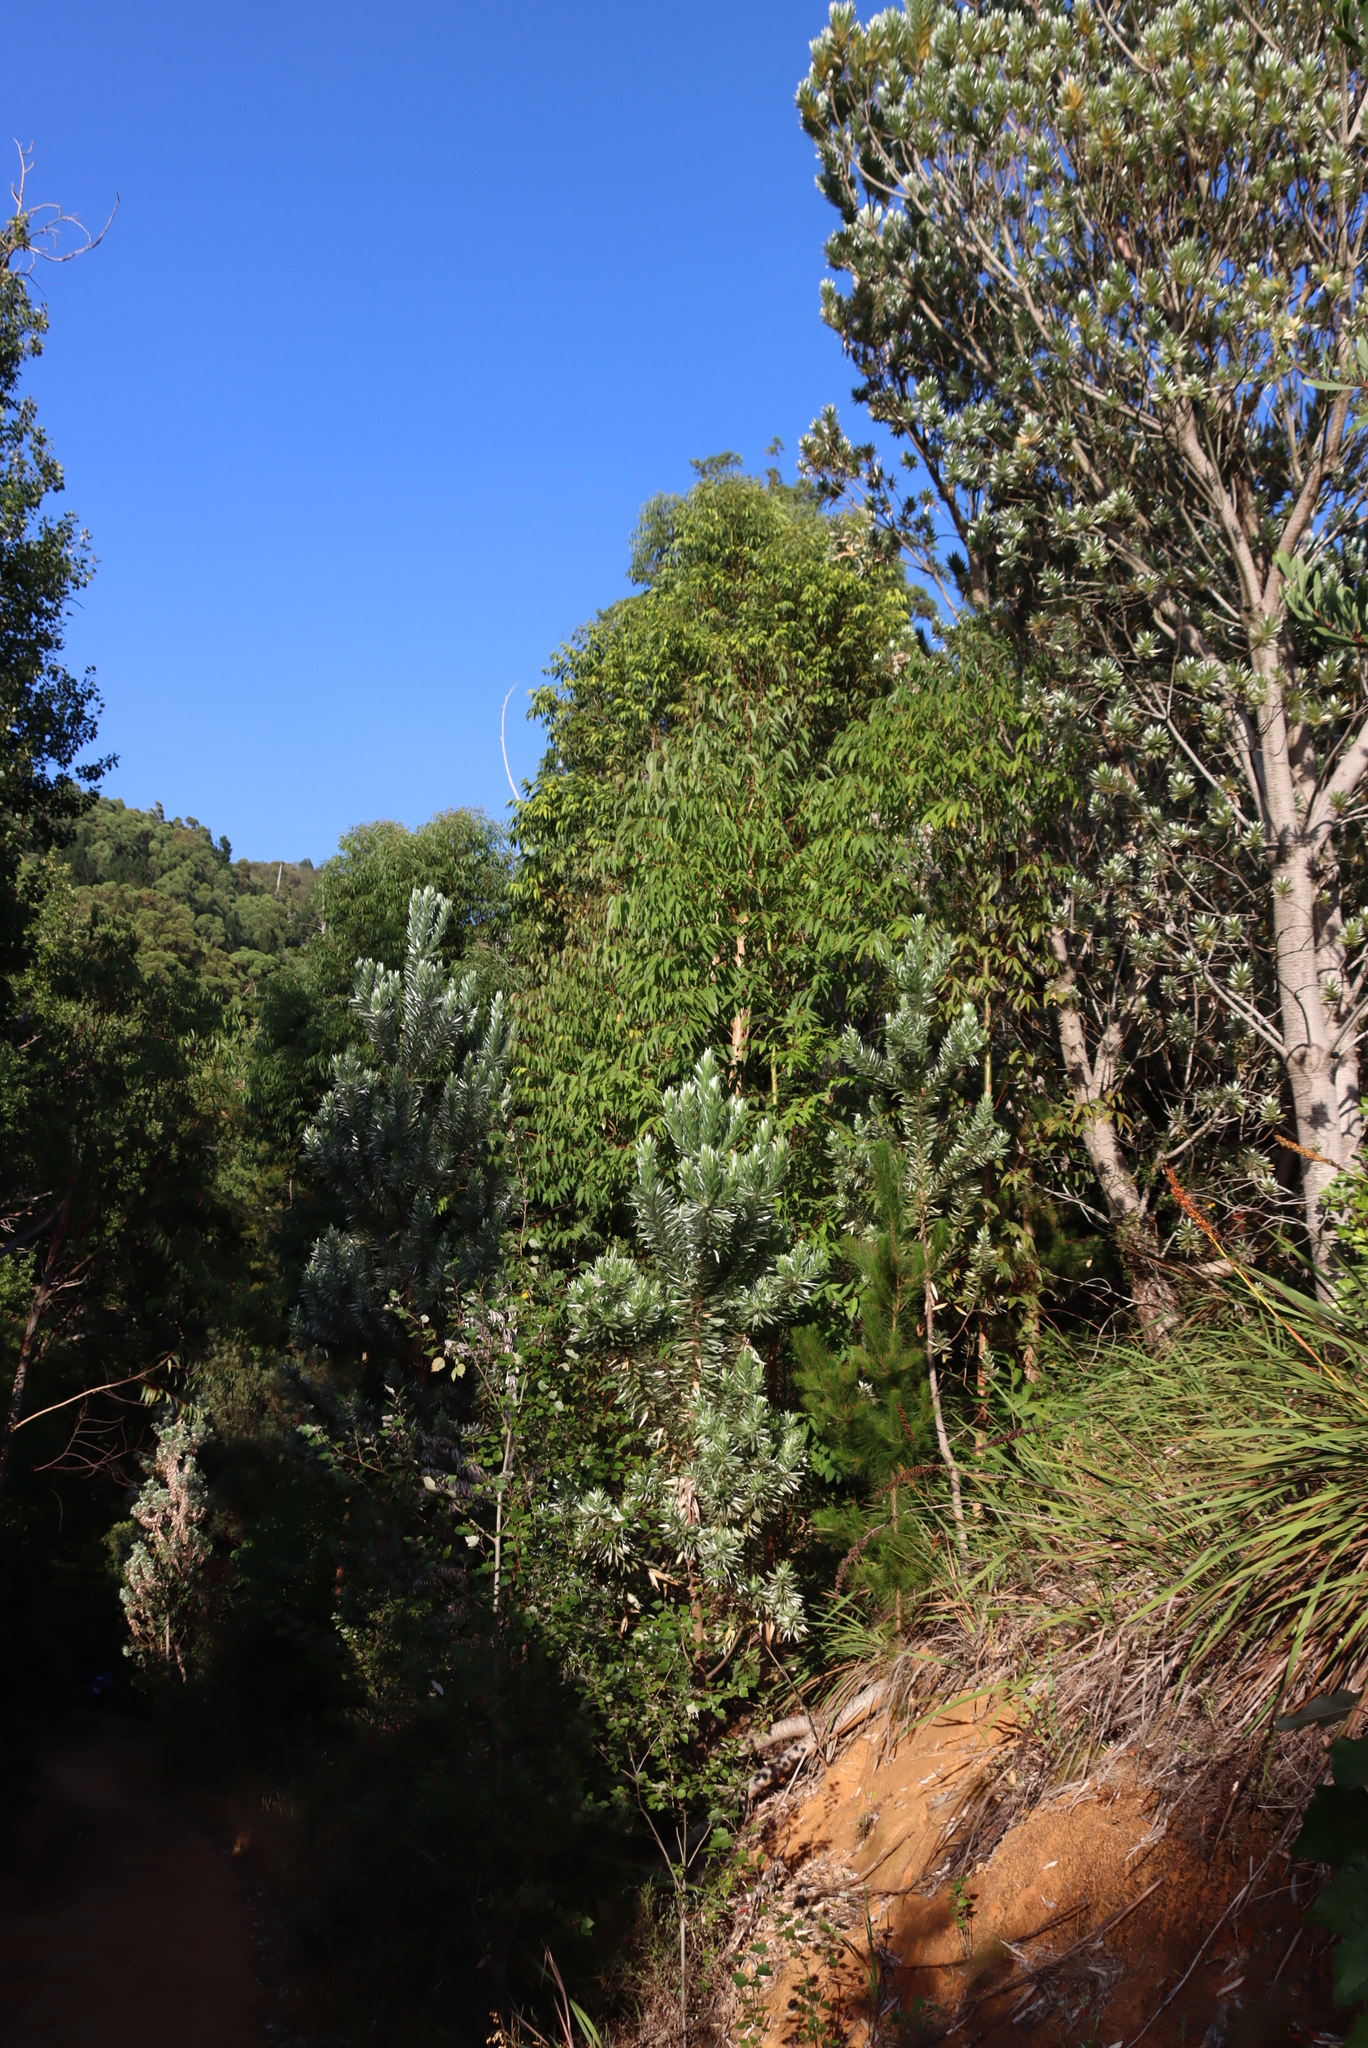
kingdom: Plantae
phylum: Tracheophyta
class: Magnoliopsida
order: Proteales
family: Proteaceae
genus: Leucadendron
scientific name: Leucadendron argenteum
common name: Cape silver tree
